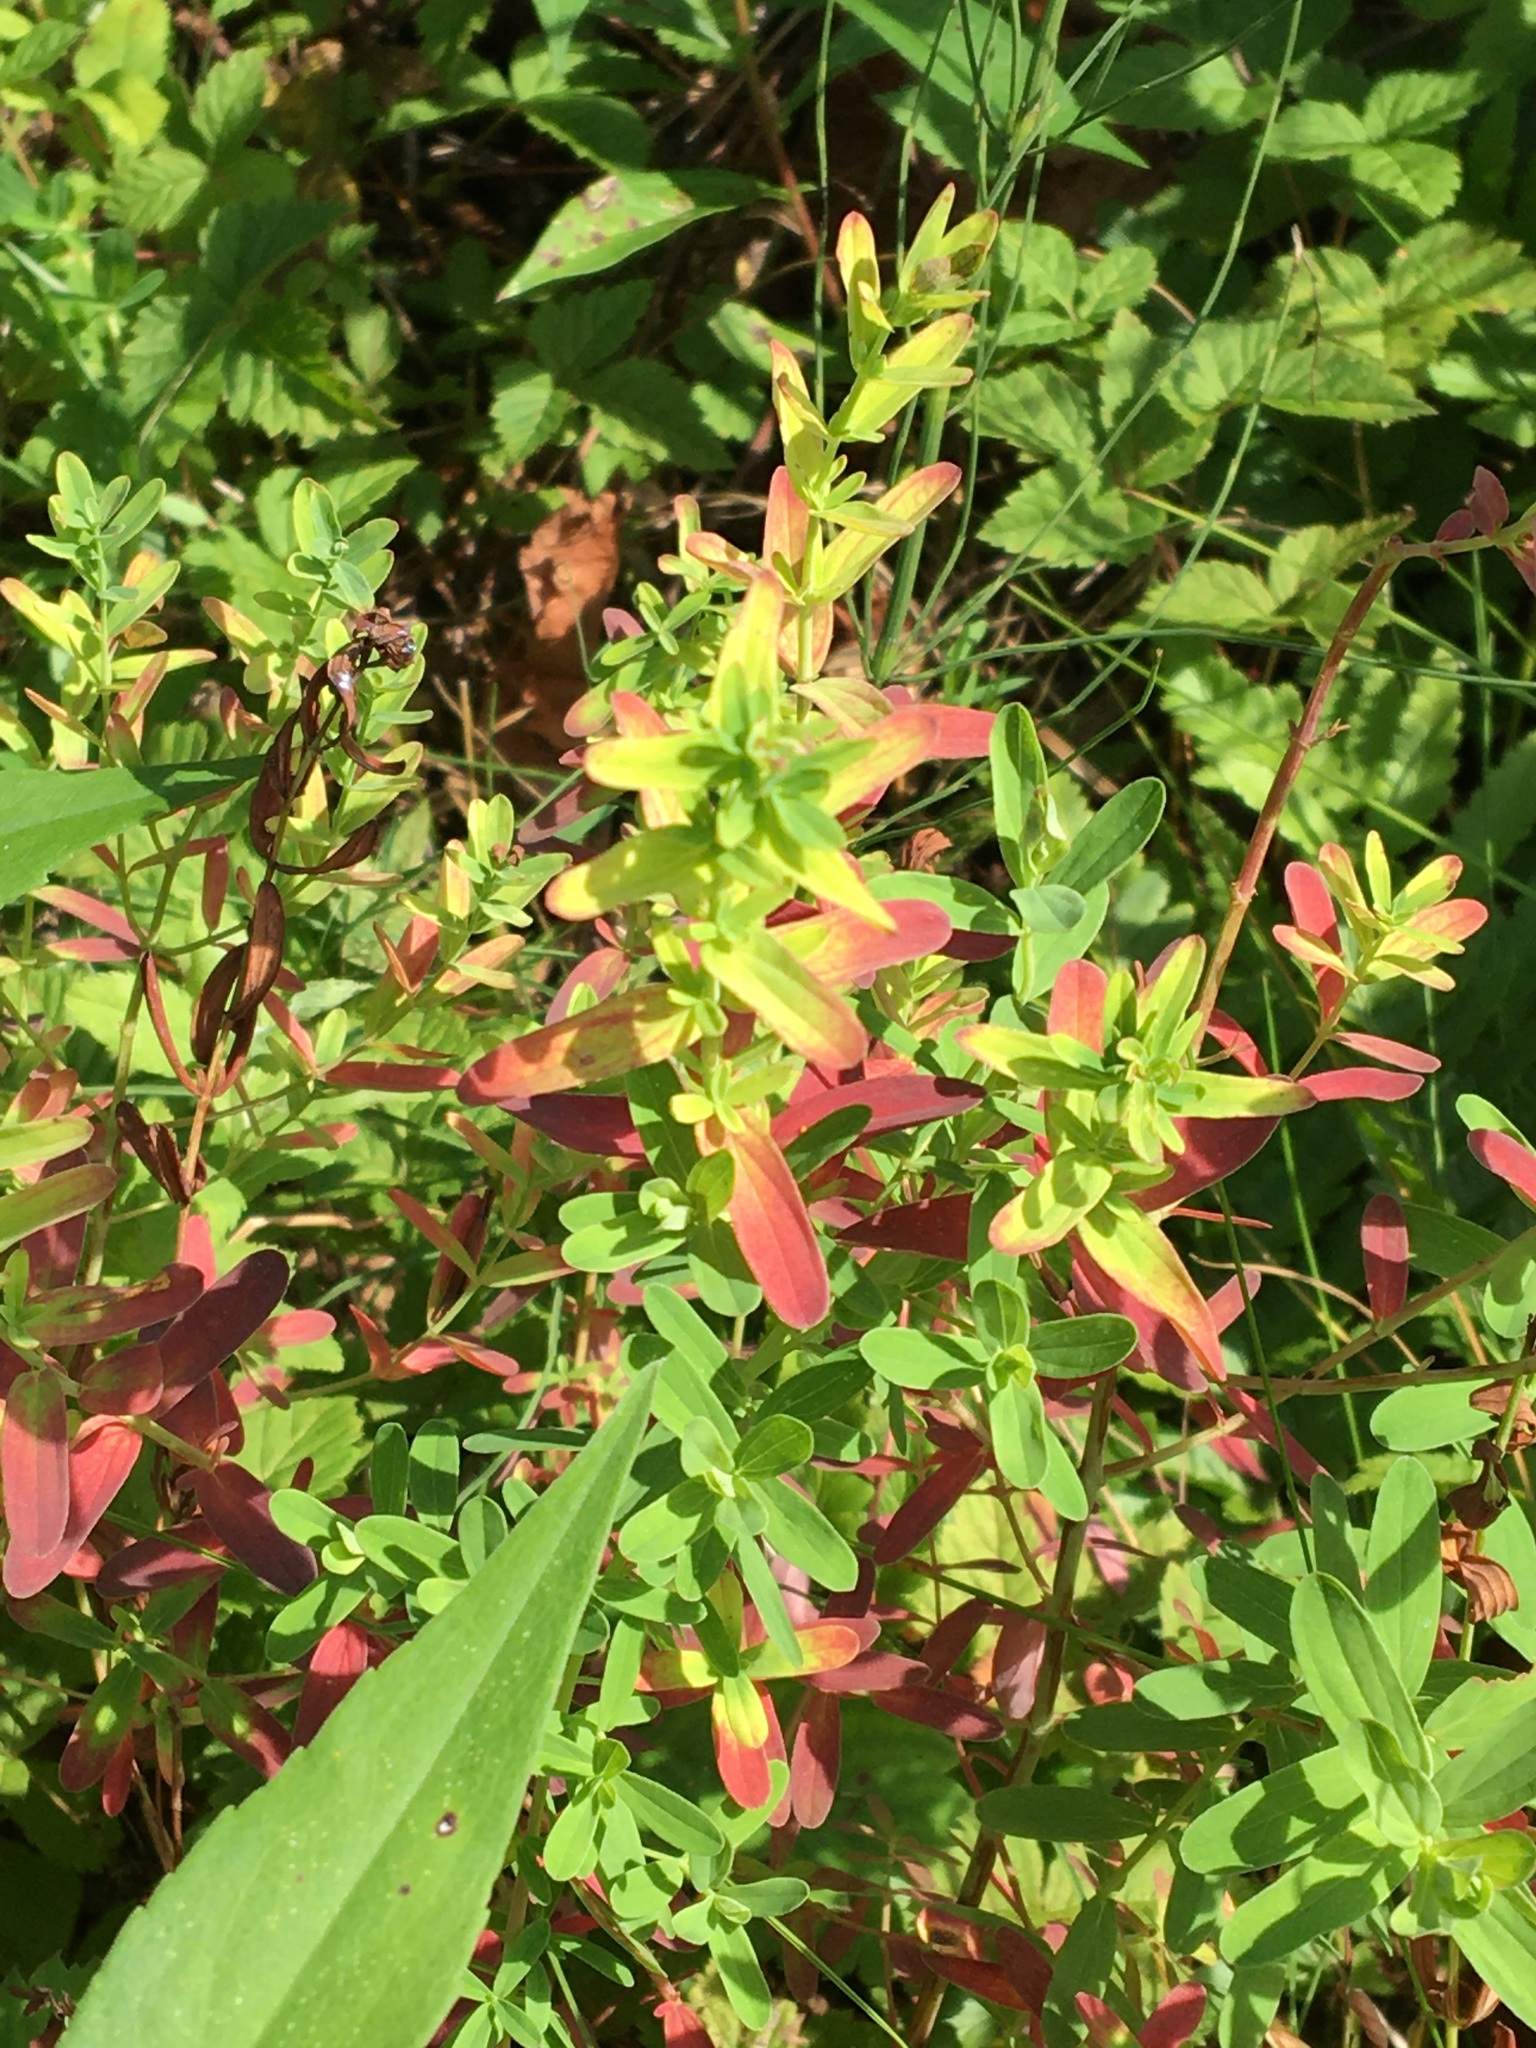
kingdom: Plantae
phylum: Tracheophyta
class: Magnoliopsida
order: Malpighiales
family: Hypericaceae
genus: Hypericum
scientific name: Hypericum perforatum
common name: Common st. johnswort
